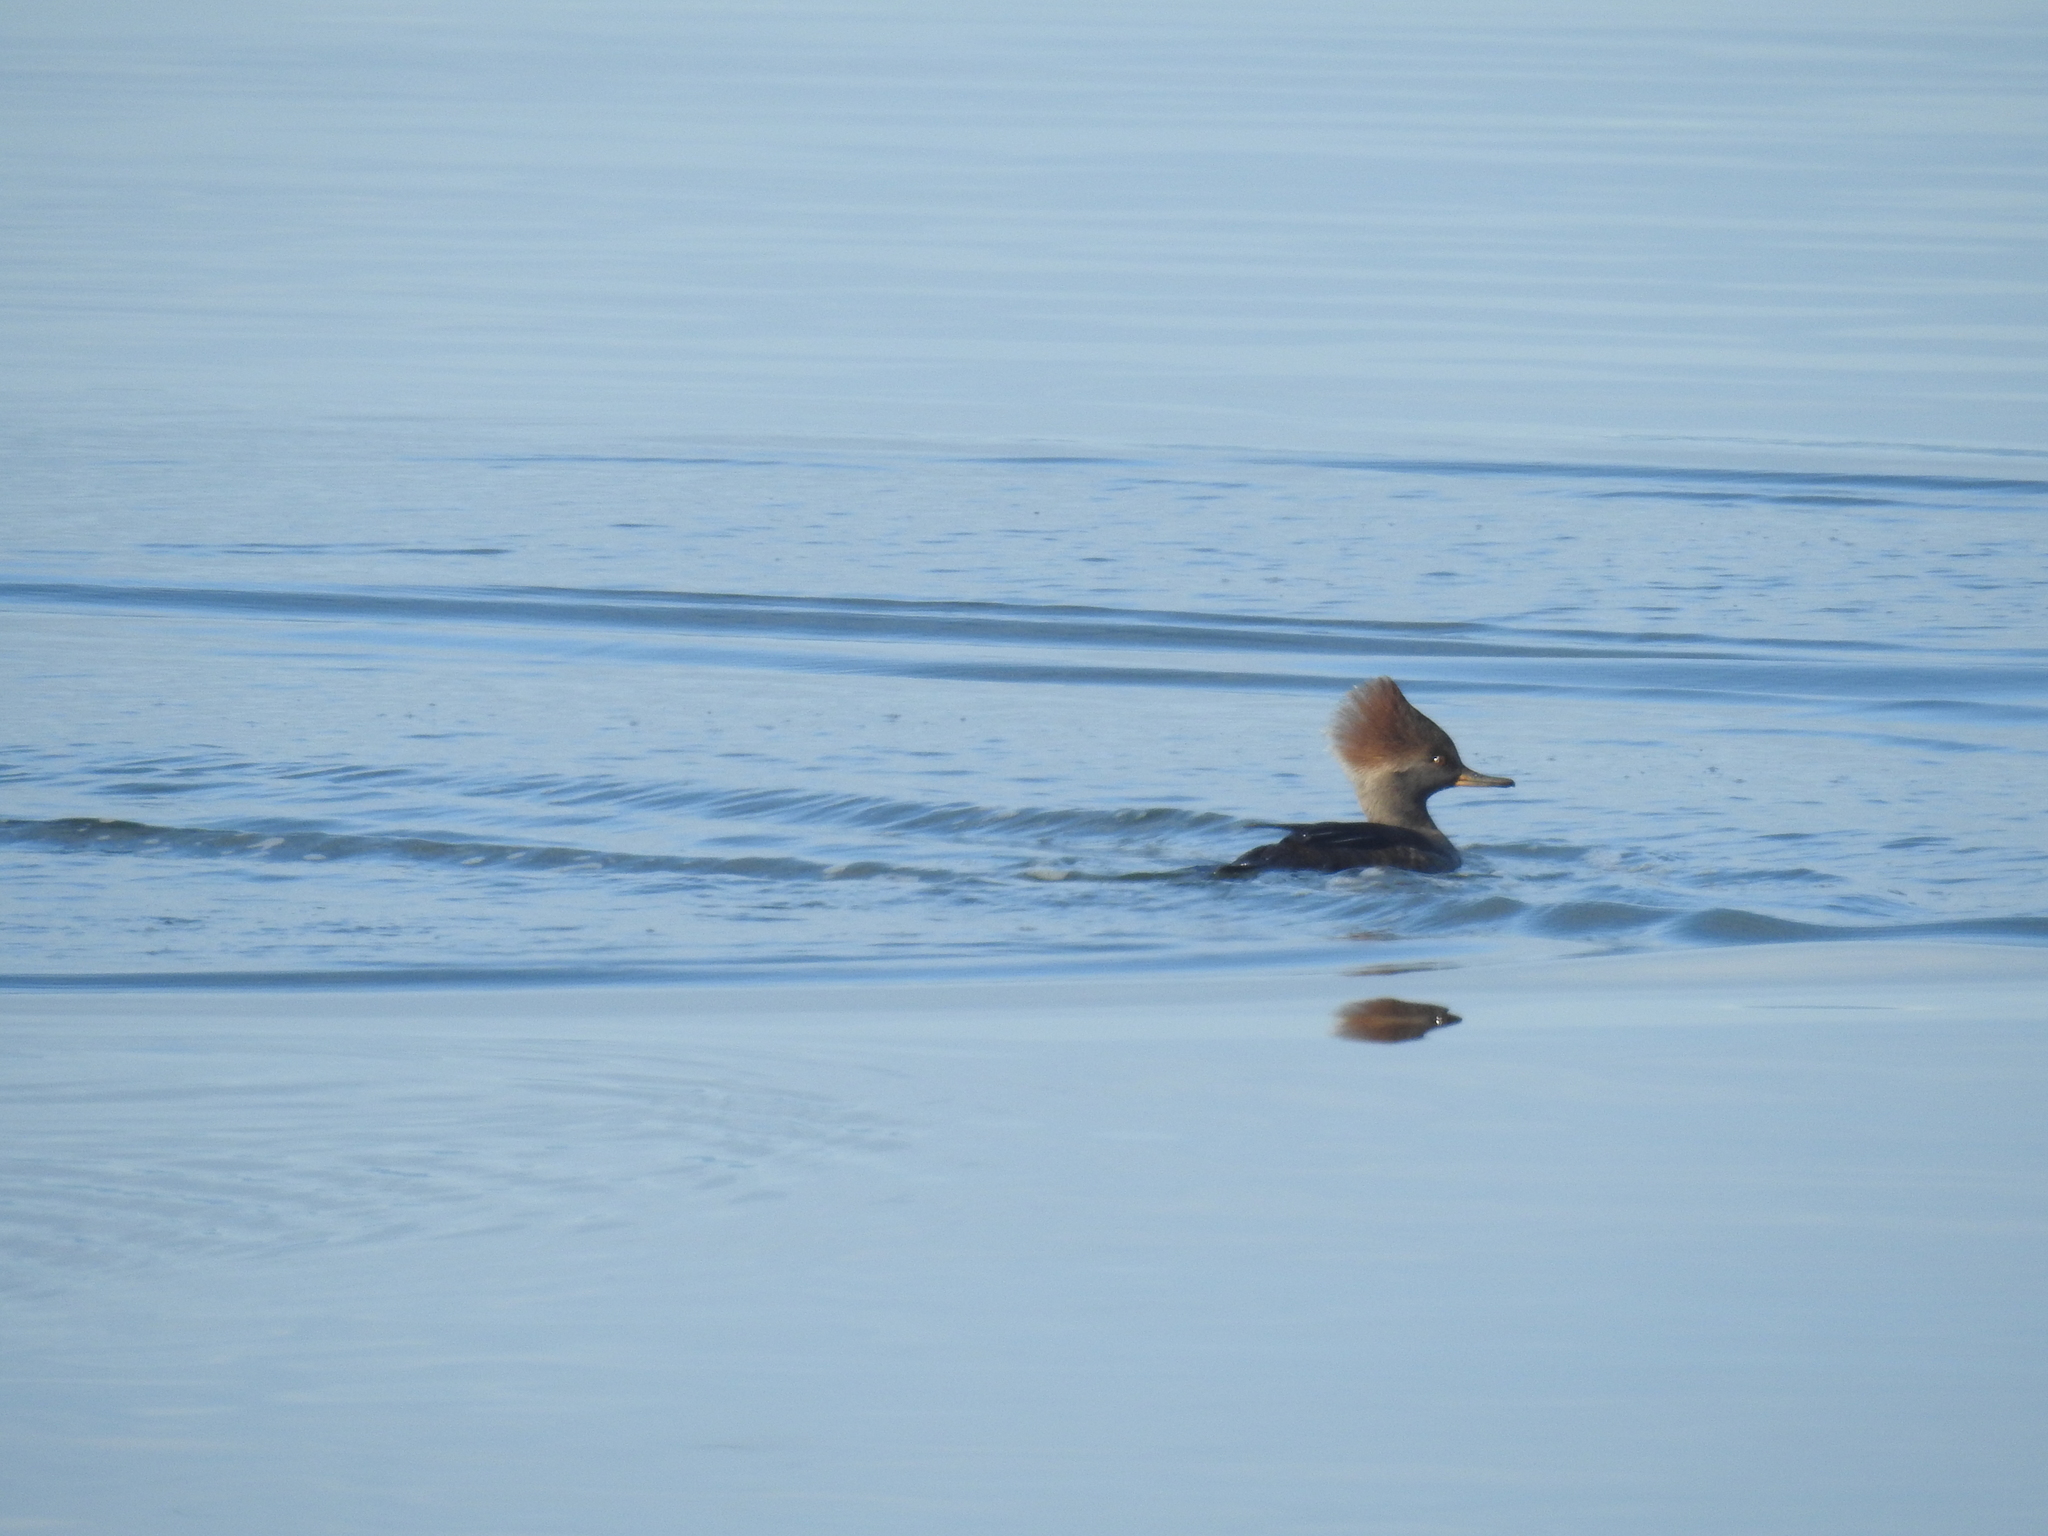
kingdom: Animalia
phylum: Chordata
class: Aves
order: Anseriformes
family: Anatidae
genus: Lophodytes
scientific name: Lophodytes cucullatus
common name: Hooded merganser
